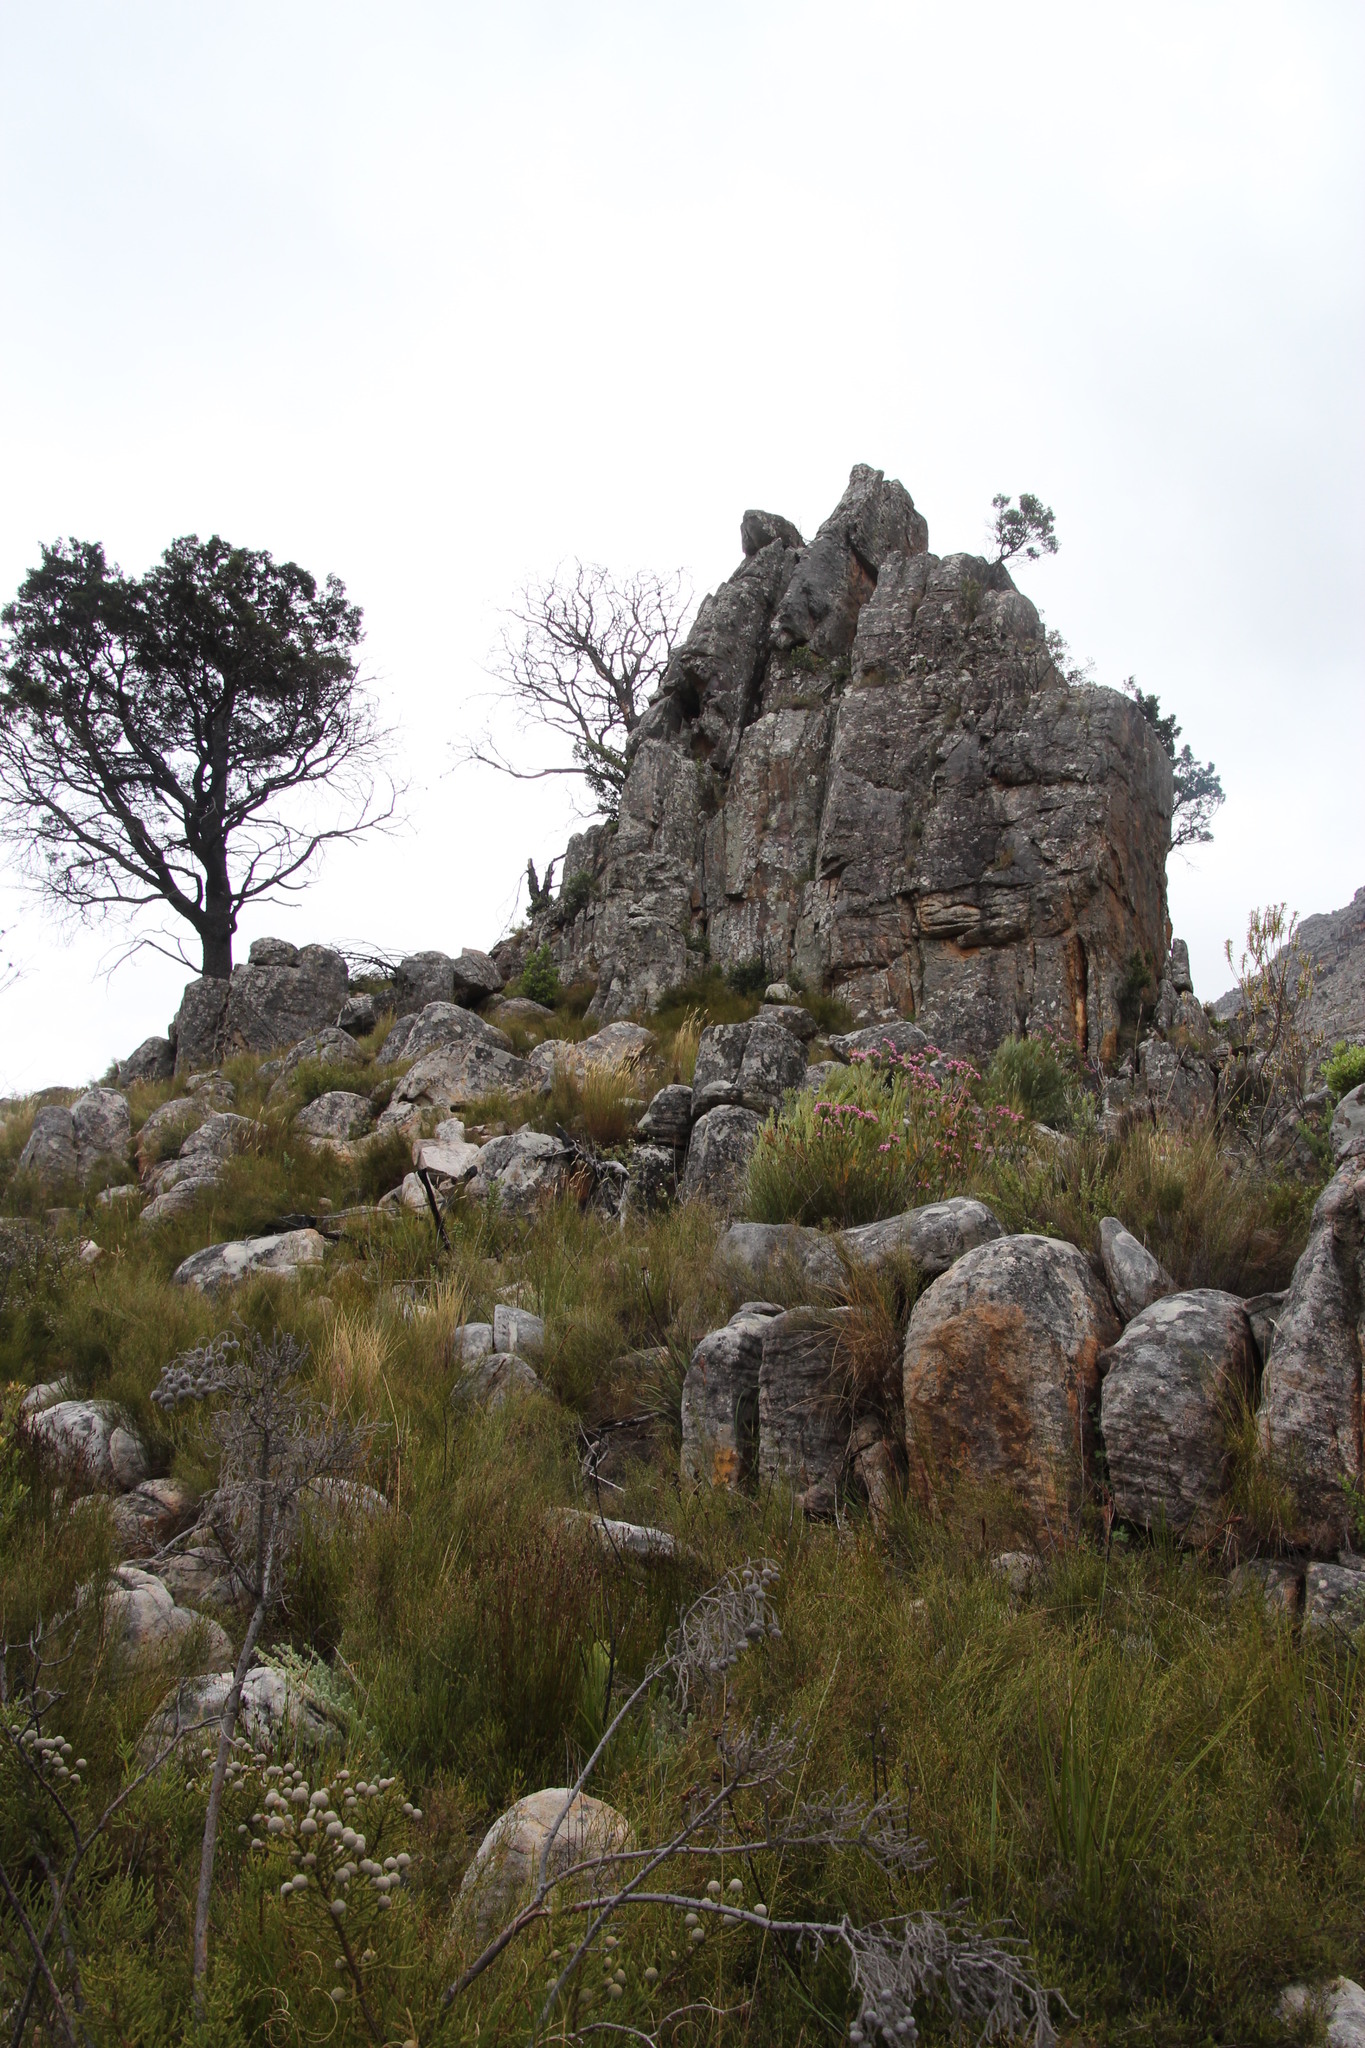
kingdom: Plantae
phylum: Tracheophyta
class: Pinopsida
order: Pinales
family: Cupressaceae
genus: Widdringtonia
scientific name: Widdringtonia nodiflora
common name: Cape cypress
